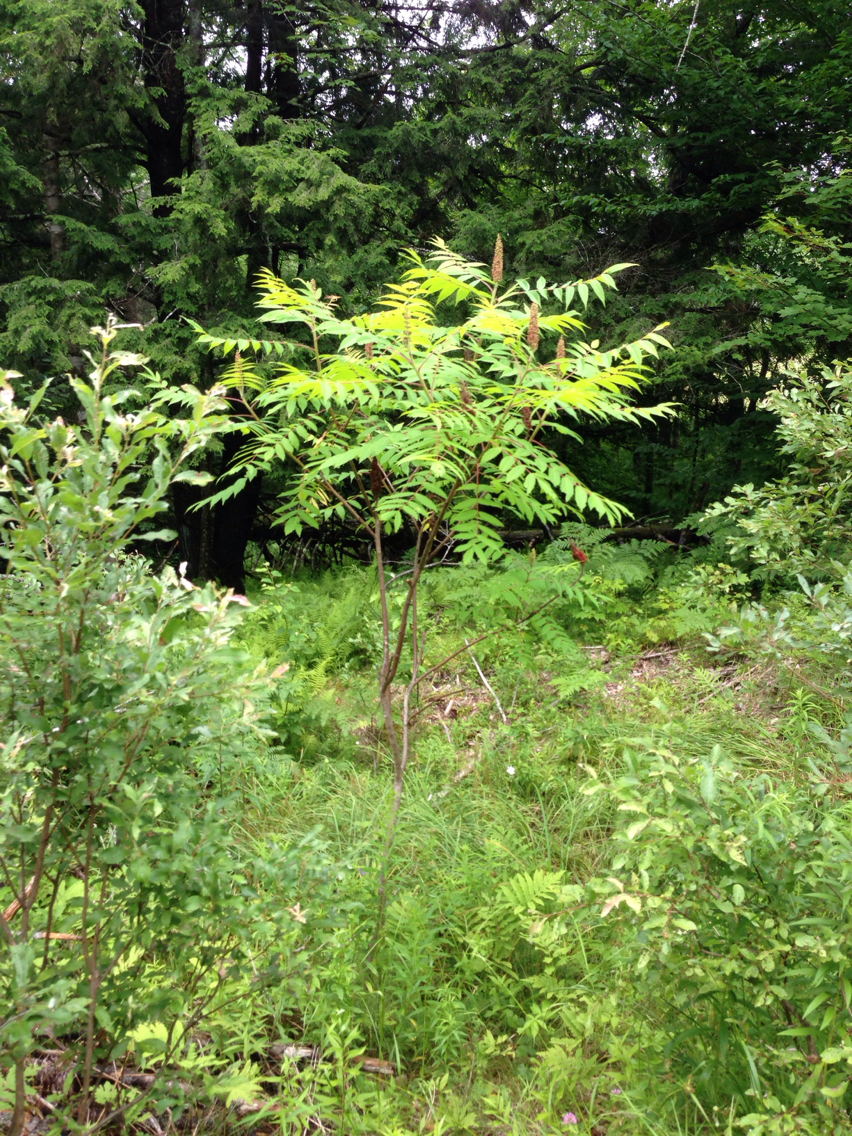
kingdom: Plantae
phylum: Tracheophyta
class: Magnoliopsida
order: Sapindales
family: Anacardiaceae
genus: Rhus
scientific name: Rhus typhina
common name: Staghorn sumac
